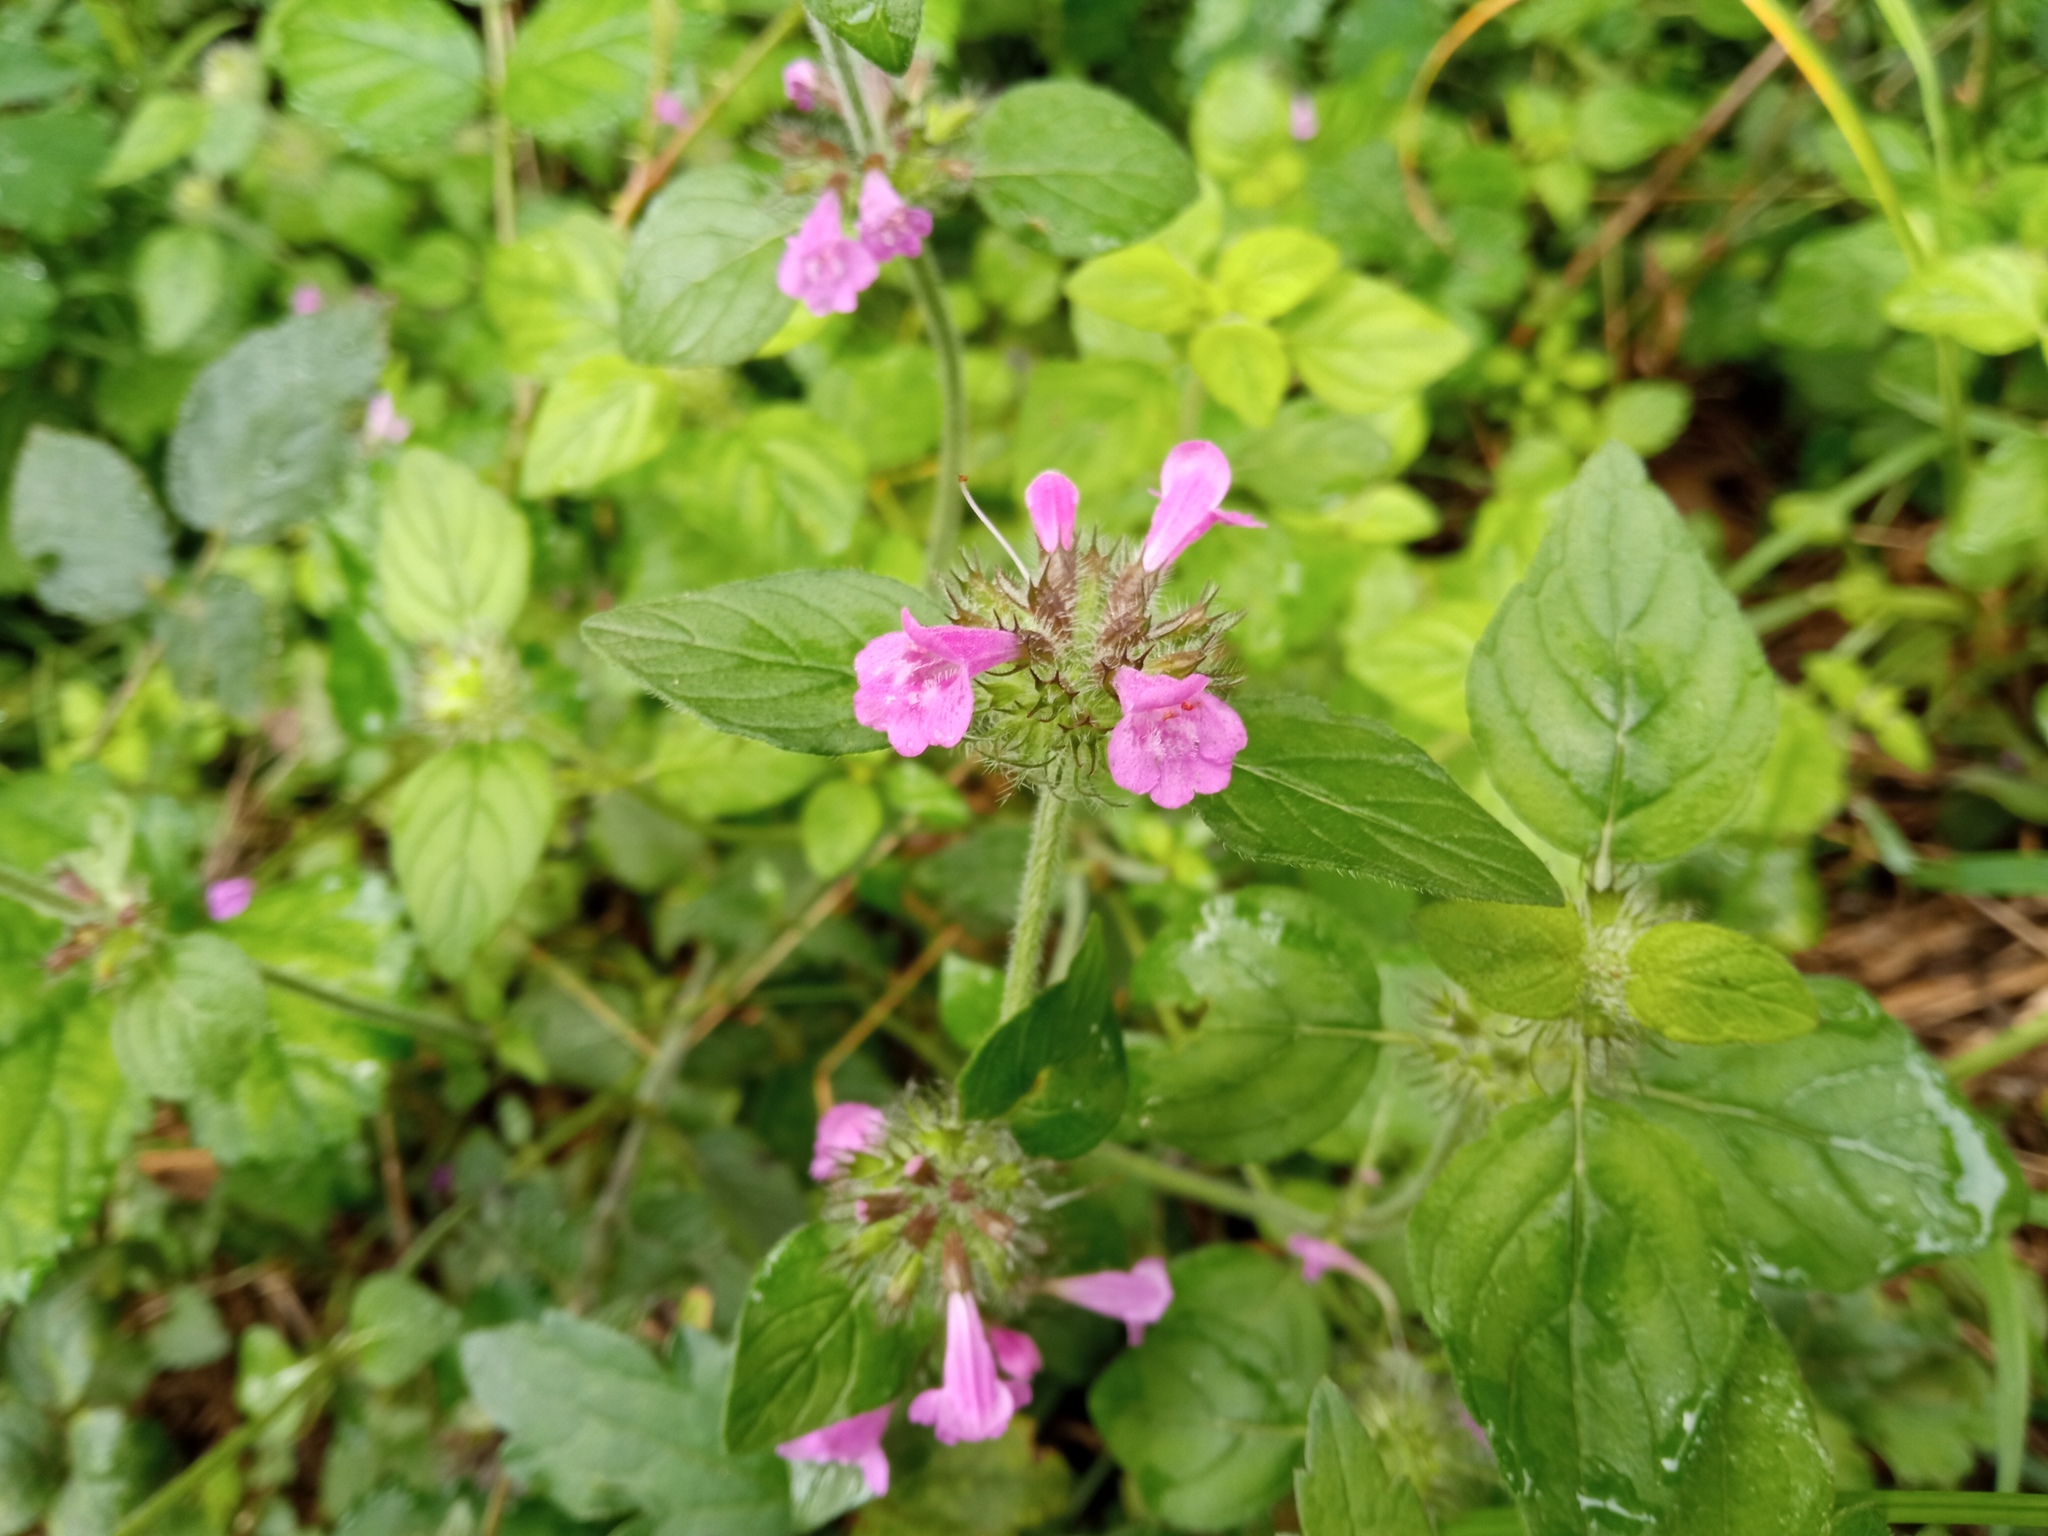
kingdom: Plantae
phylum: Tracheophyta
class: Magnoliopsida
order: Lamiales
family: Lamiaceae
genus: Clinopodium
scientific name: Clinopodium vulgare
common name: Wild basil
